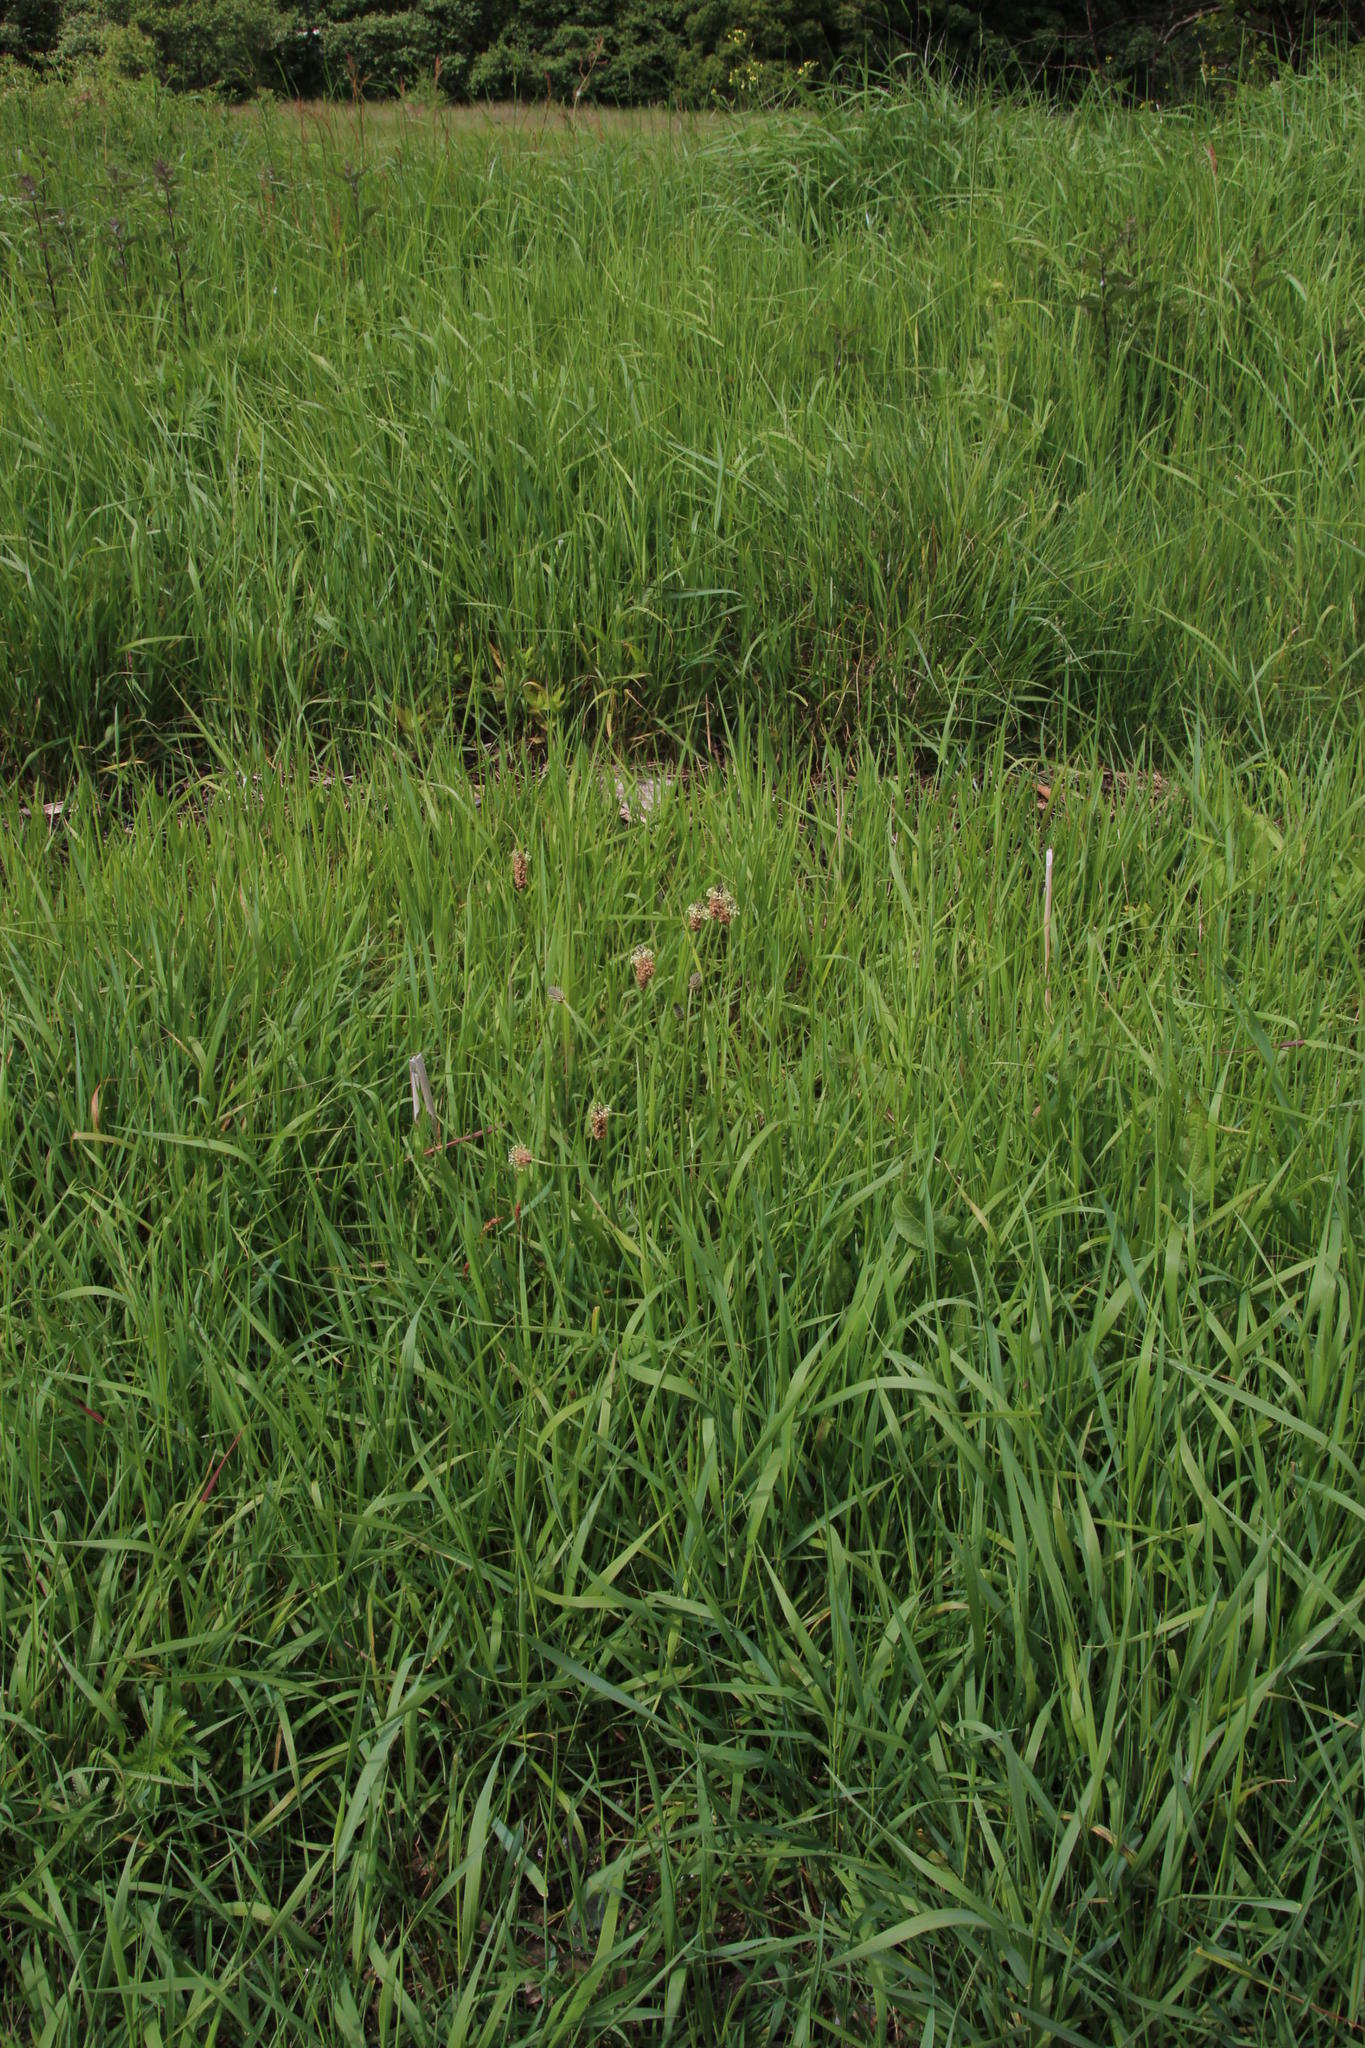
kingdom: Plantae
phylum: Tracheophyta
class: Magnoliopsida
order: Lamiales
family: Plantaginaceae
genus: Plantago
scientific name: Plantago lanceolata
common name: Ribwort plantain
